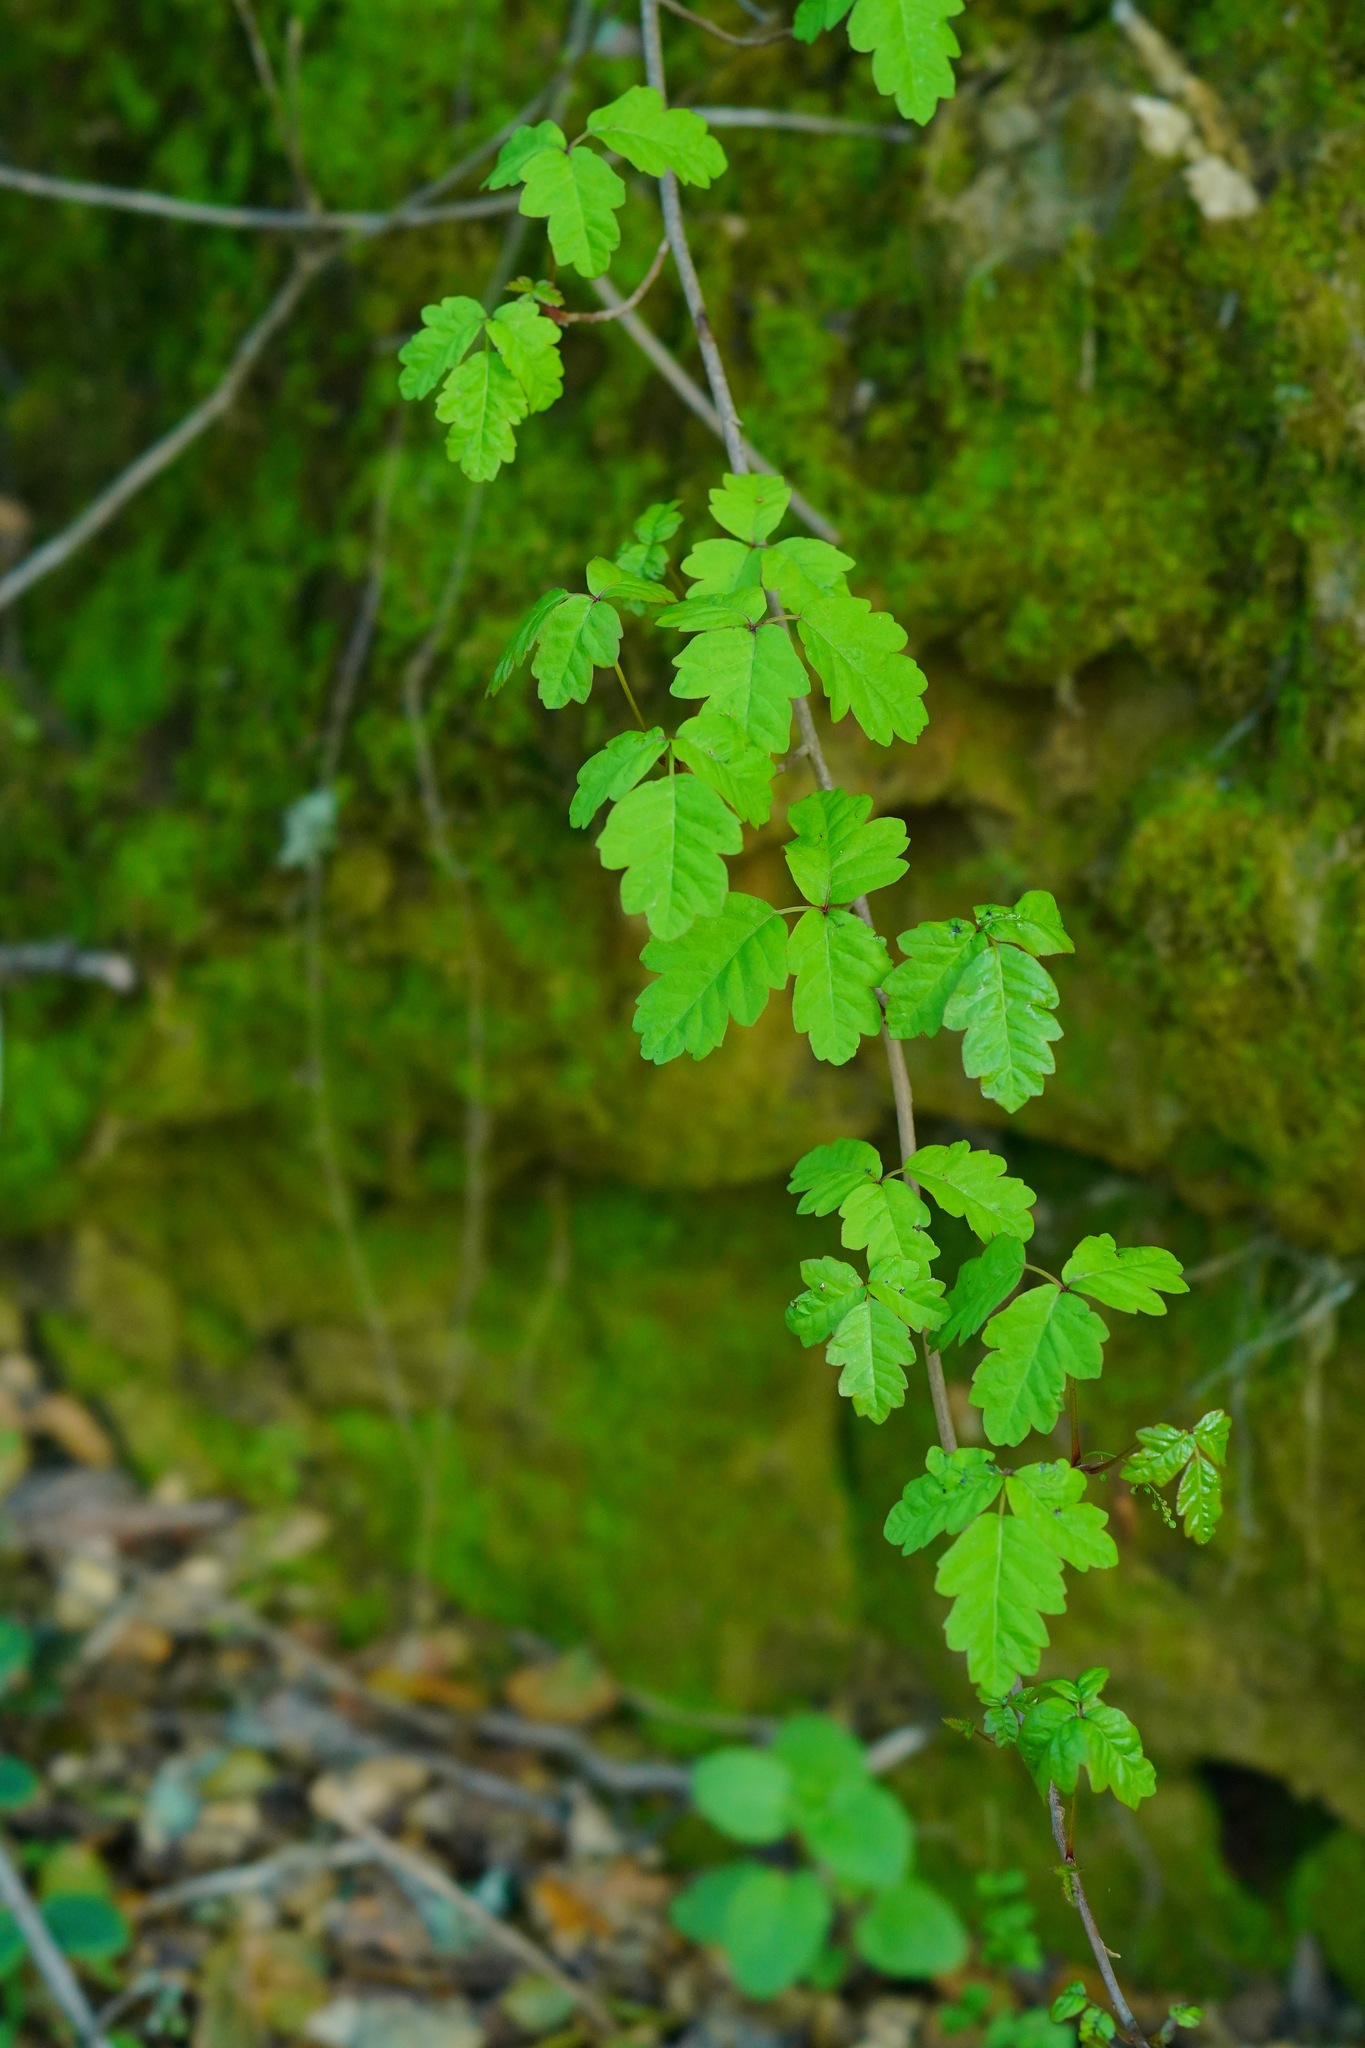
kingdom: Plantae
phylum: Tracheophyta
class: Magnoliopsida
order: Sapindales
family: Anacardiaceae
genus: Toxicodendron
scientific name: Toxicodendron diversilobum
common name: Pacific poison-oak
